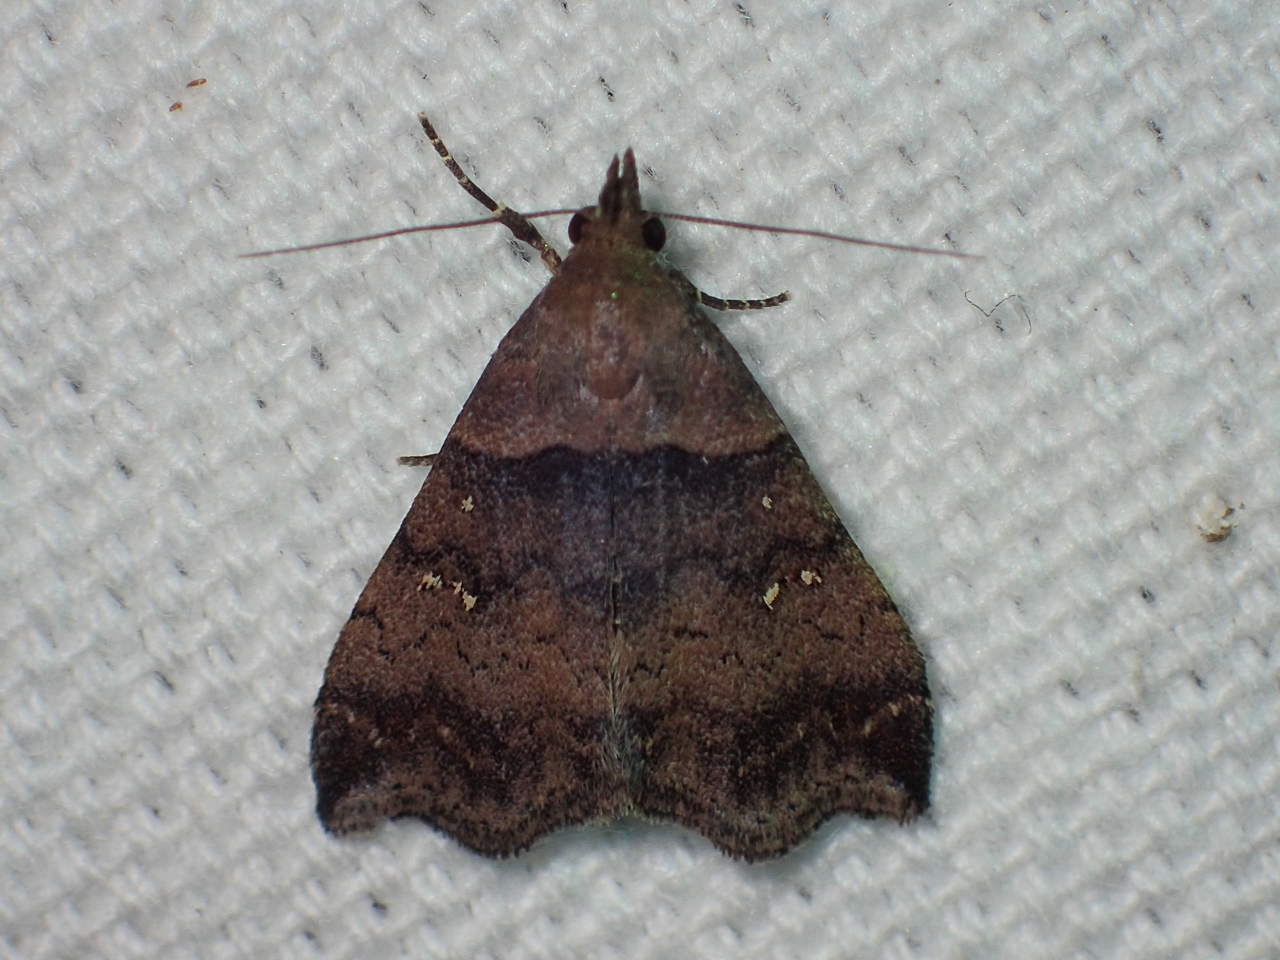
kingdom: Animalia
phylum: Arthropoda
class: Insecta
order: Lepidoptera
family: Erebidae
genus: Lascoria
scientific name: Lascoria ambigualis
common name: Ambiguous moth
